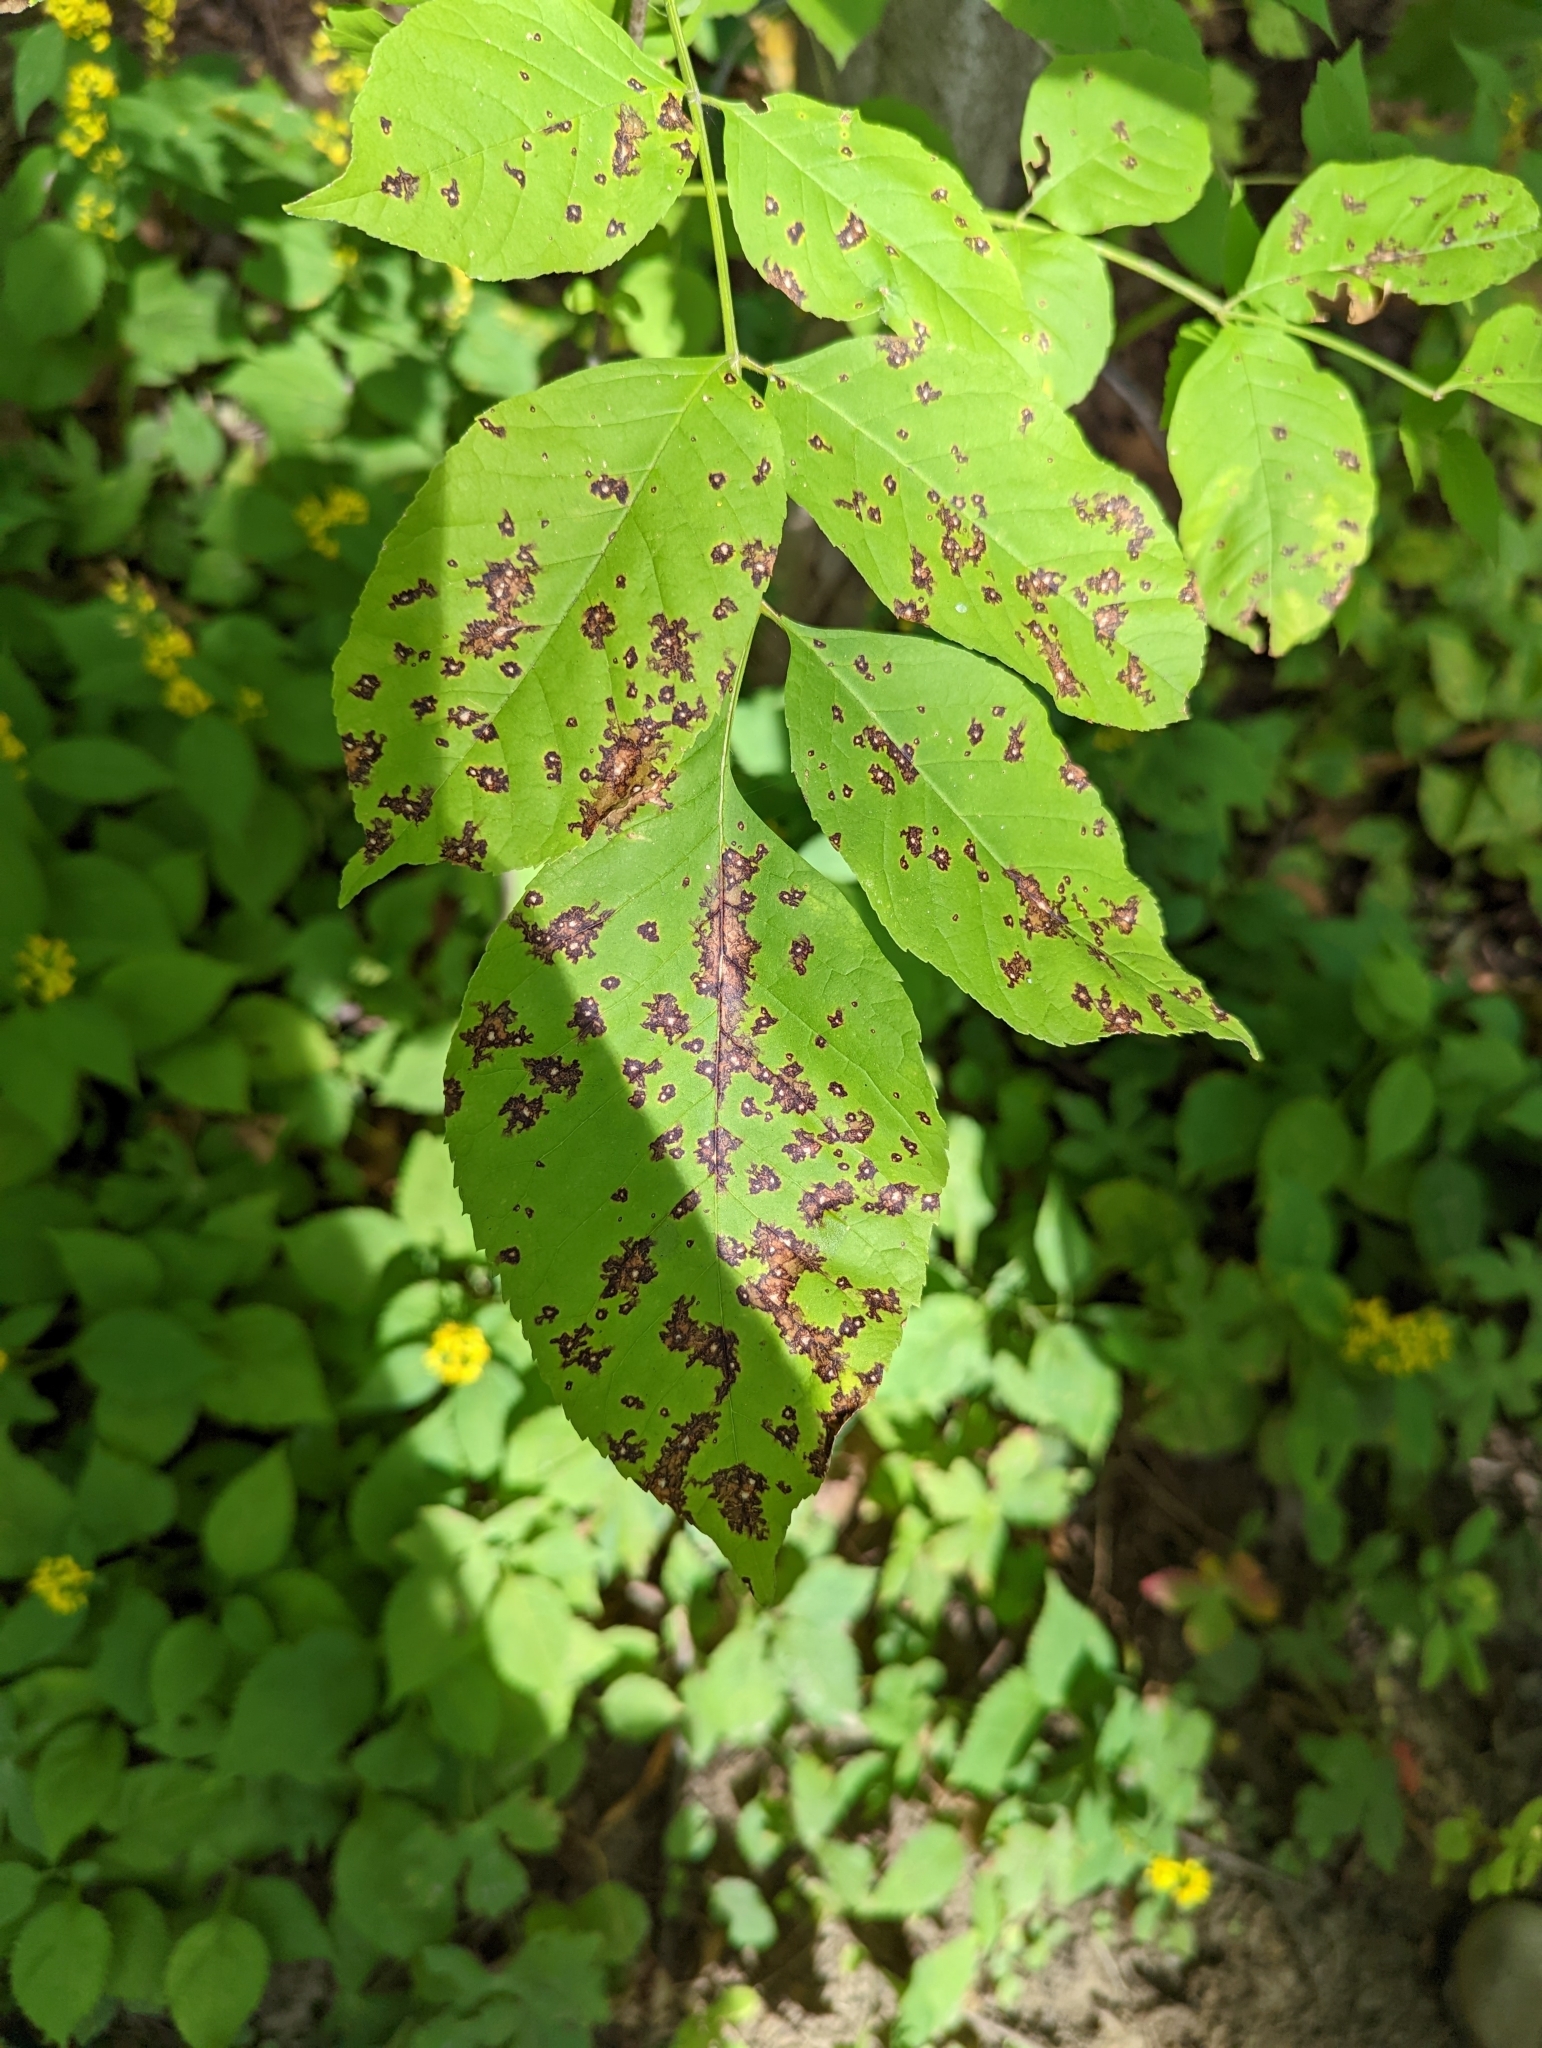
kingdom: Fungi
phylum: Ascomycota
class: Dothideomycetes
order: Mycosphaerellales
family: Mycosphaerellaceae
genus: Mycosphaerella
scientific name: Mycosphaerella fraxinicola
